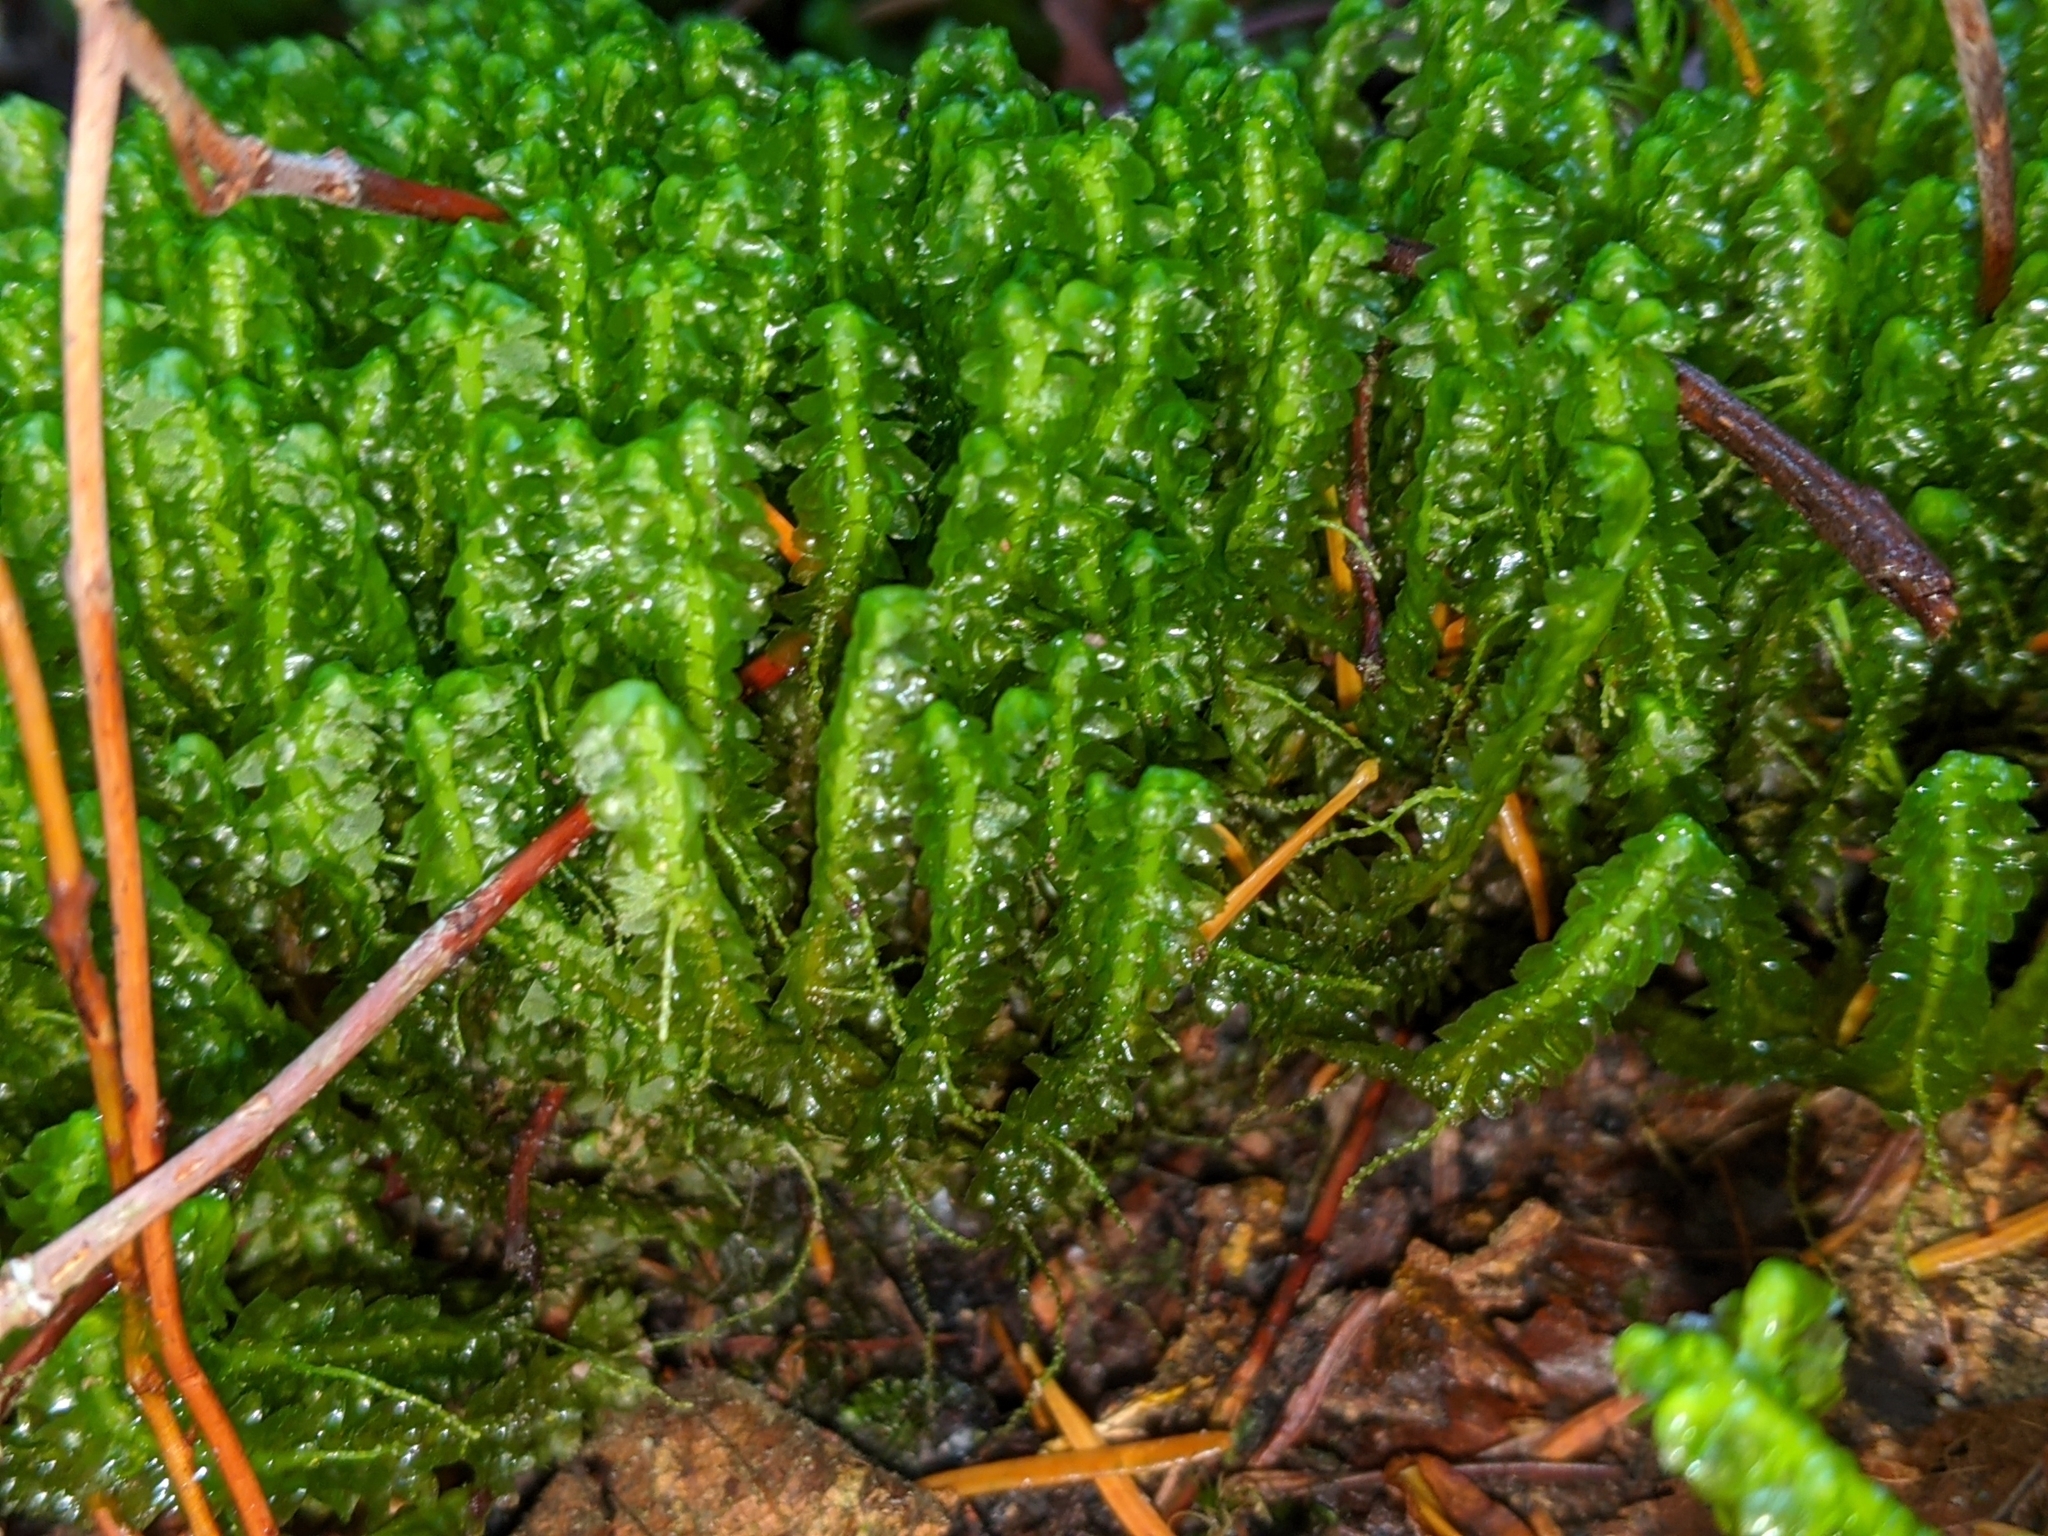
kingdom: Plantae
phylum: Marchantiophyta
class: Jungermanniopsida
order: Jungermanniales
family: Lepidoziaceae
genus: Bazzania
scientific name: Bazzania trilobata
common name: Three-lobed whipwort
